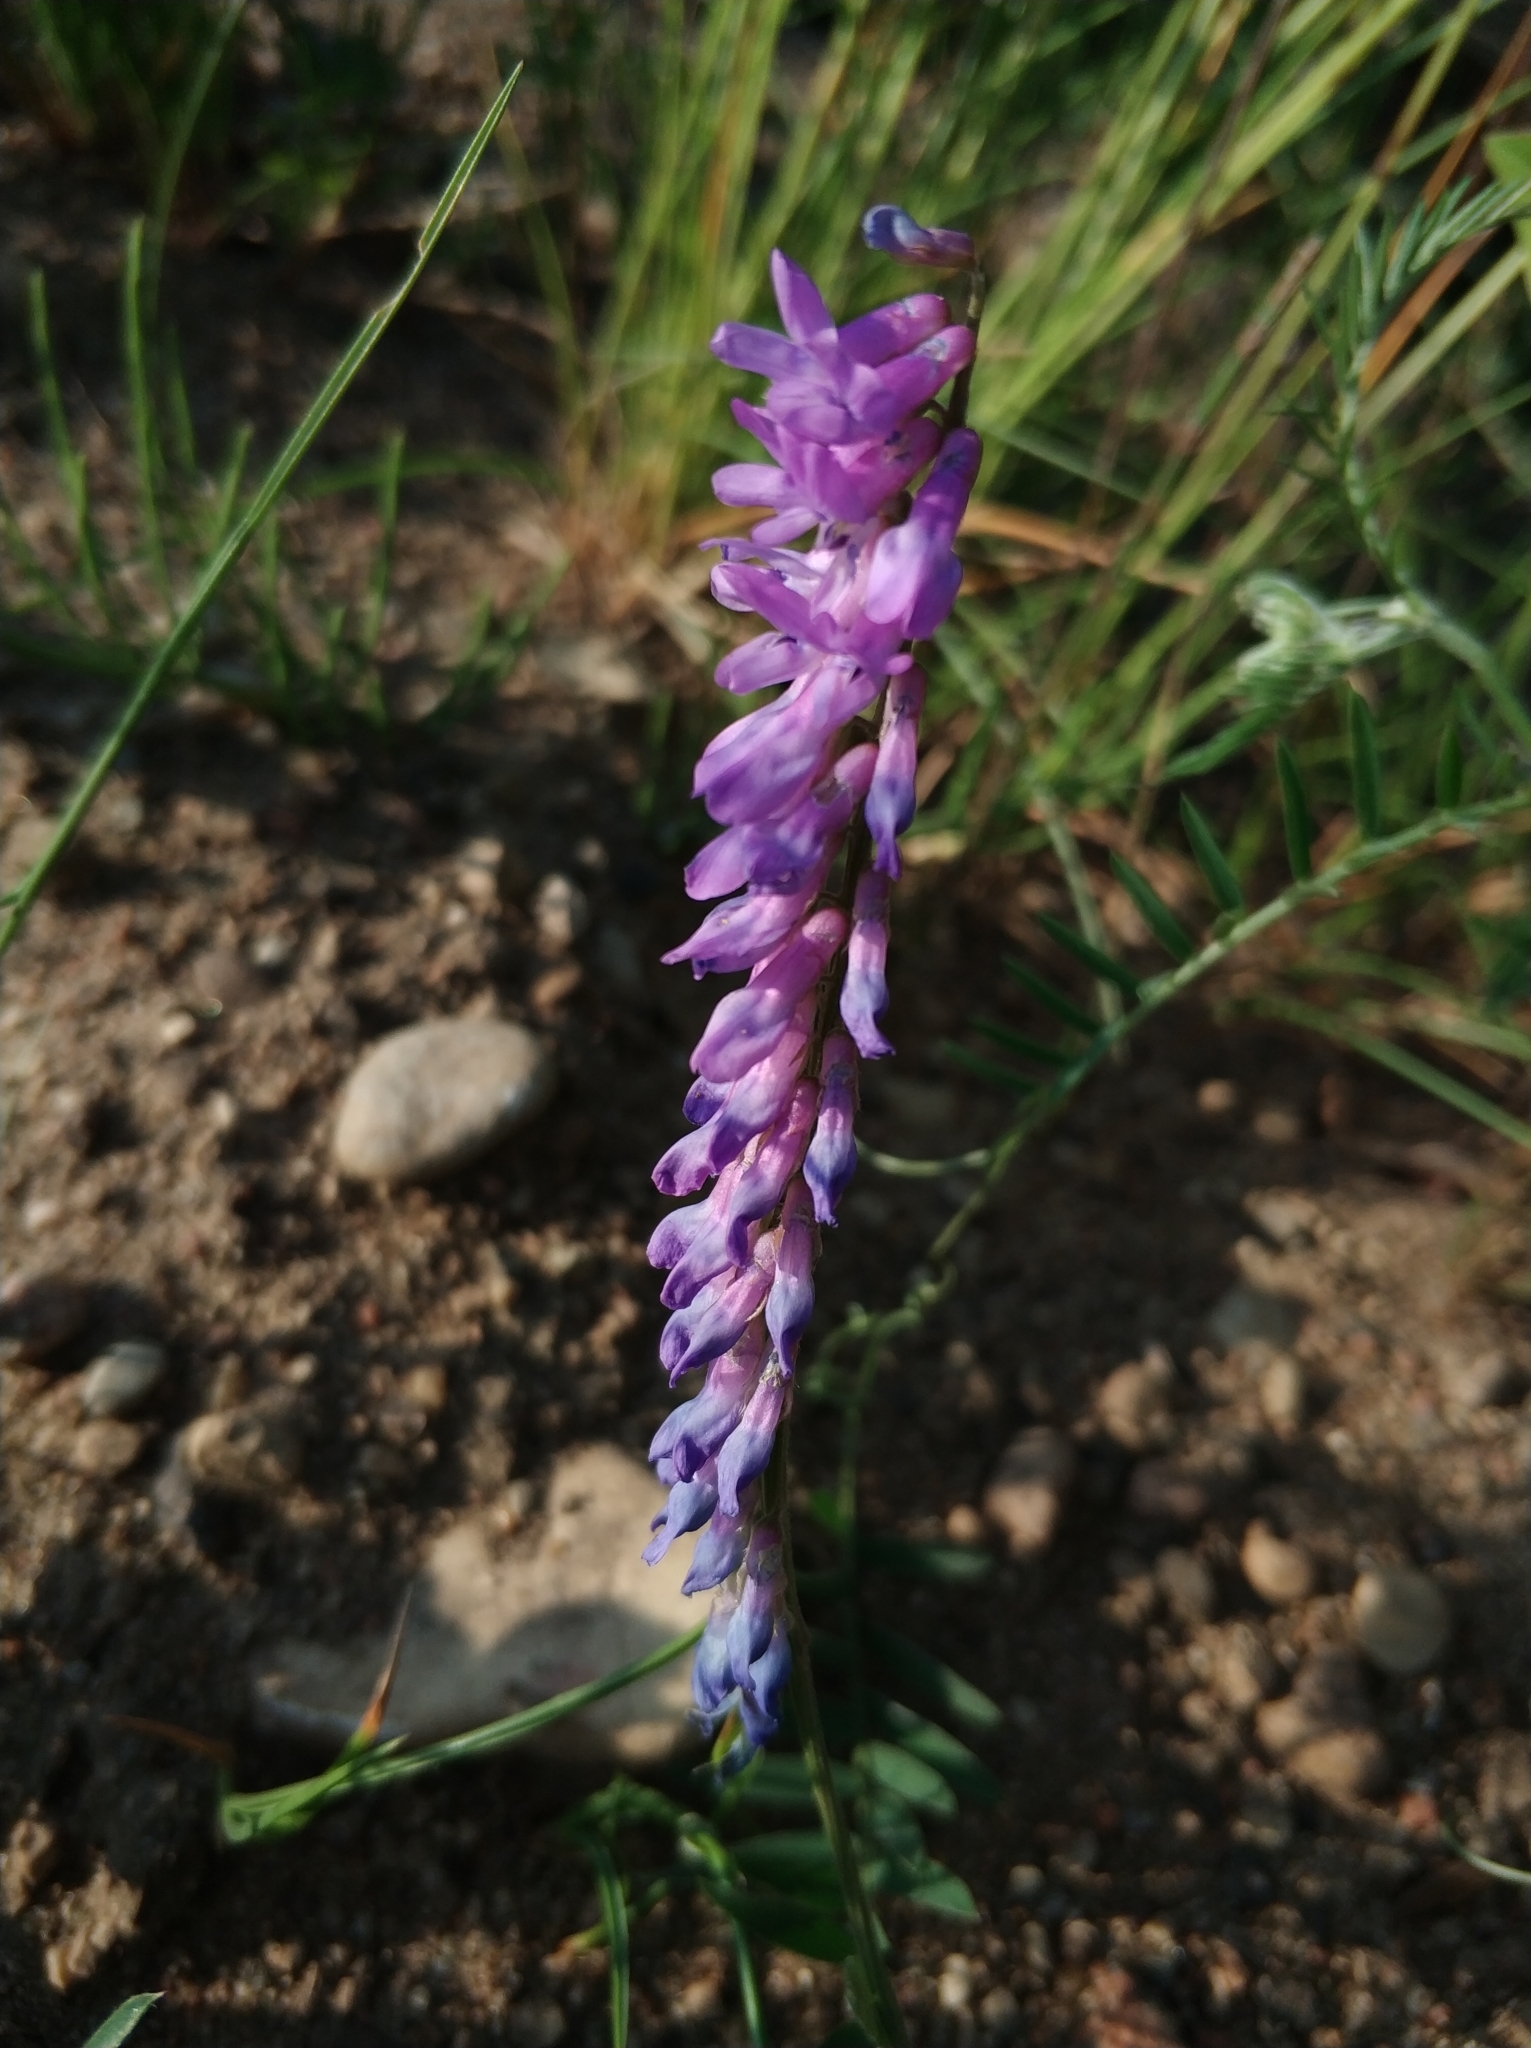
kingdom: Plantae
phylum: Tracheophyta
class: Magnoliopsida
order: Fabales
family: Fabaceae
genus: Vicia
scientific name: Vicia cracca
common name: Bird vetch
